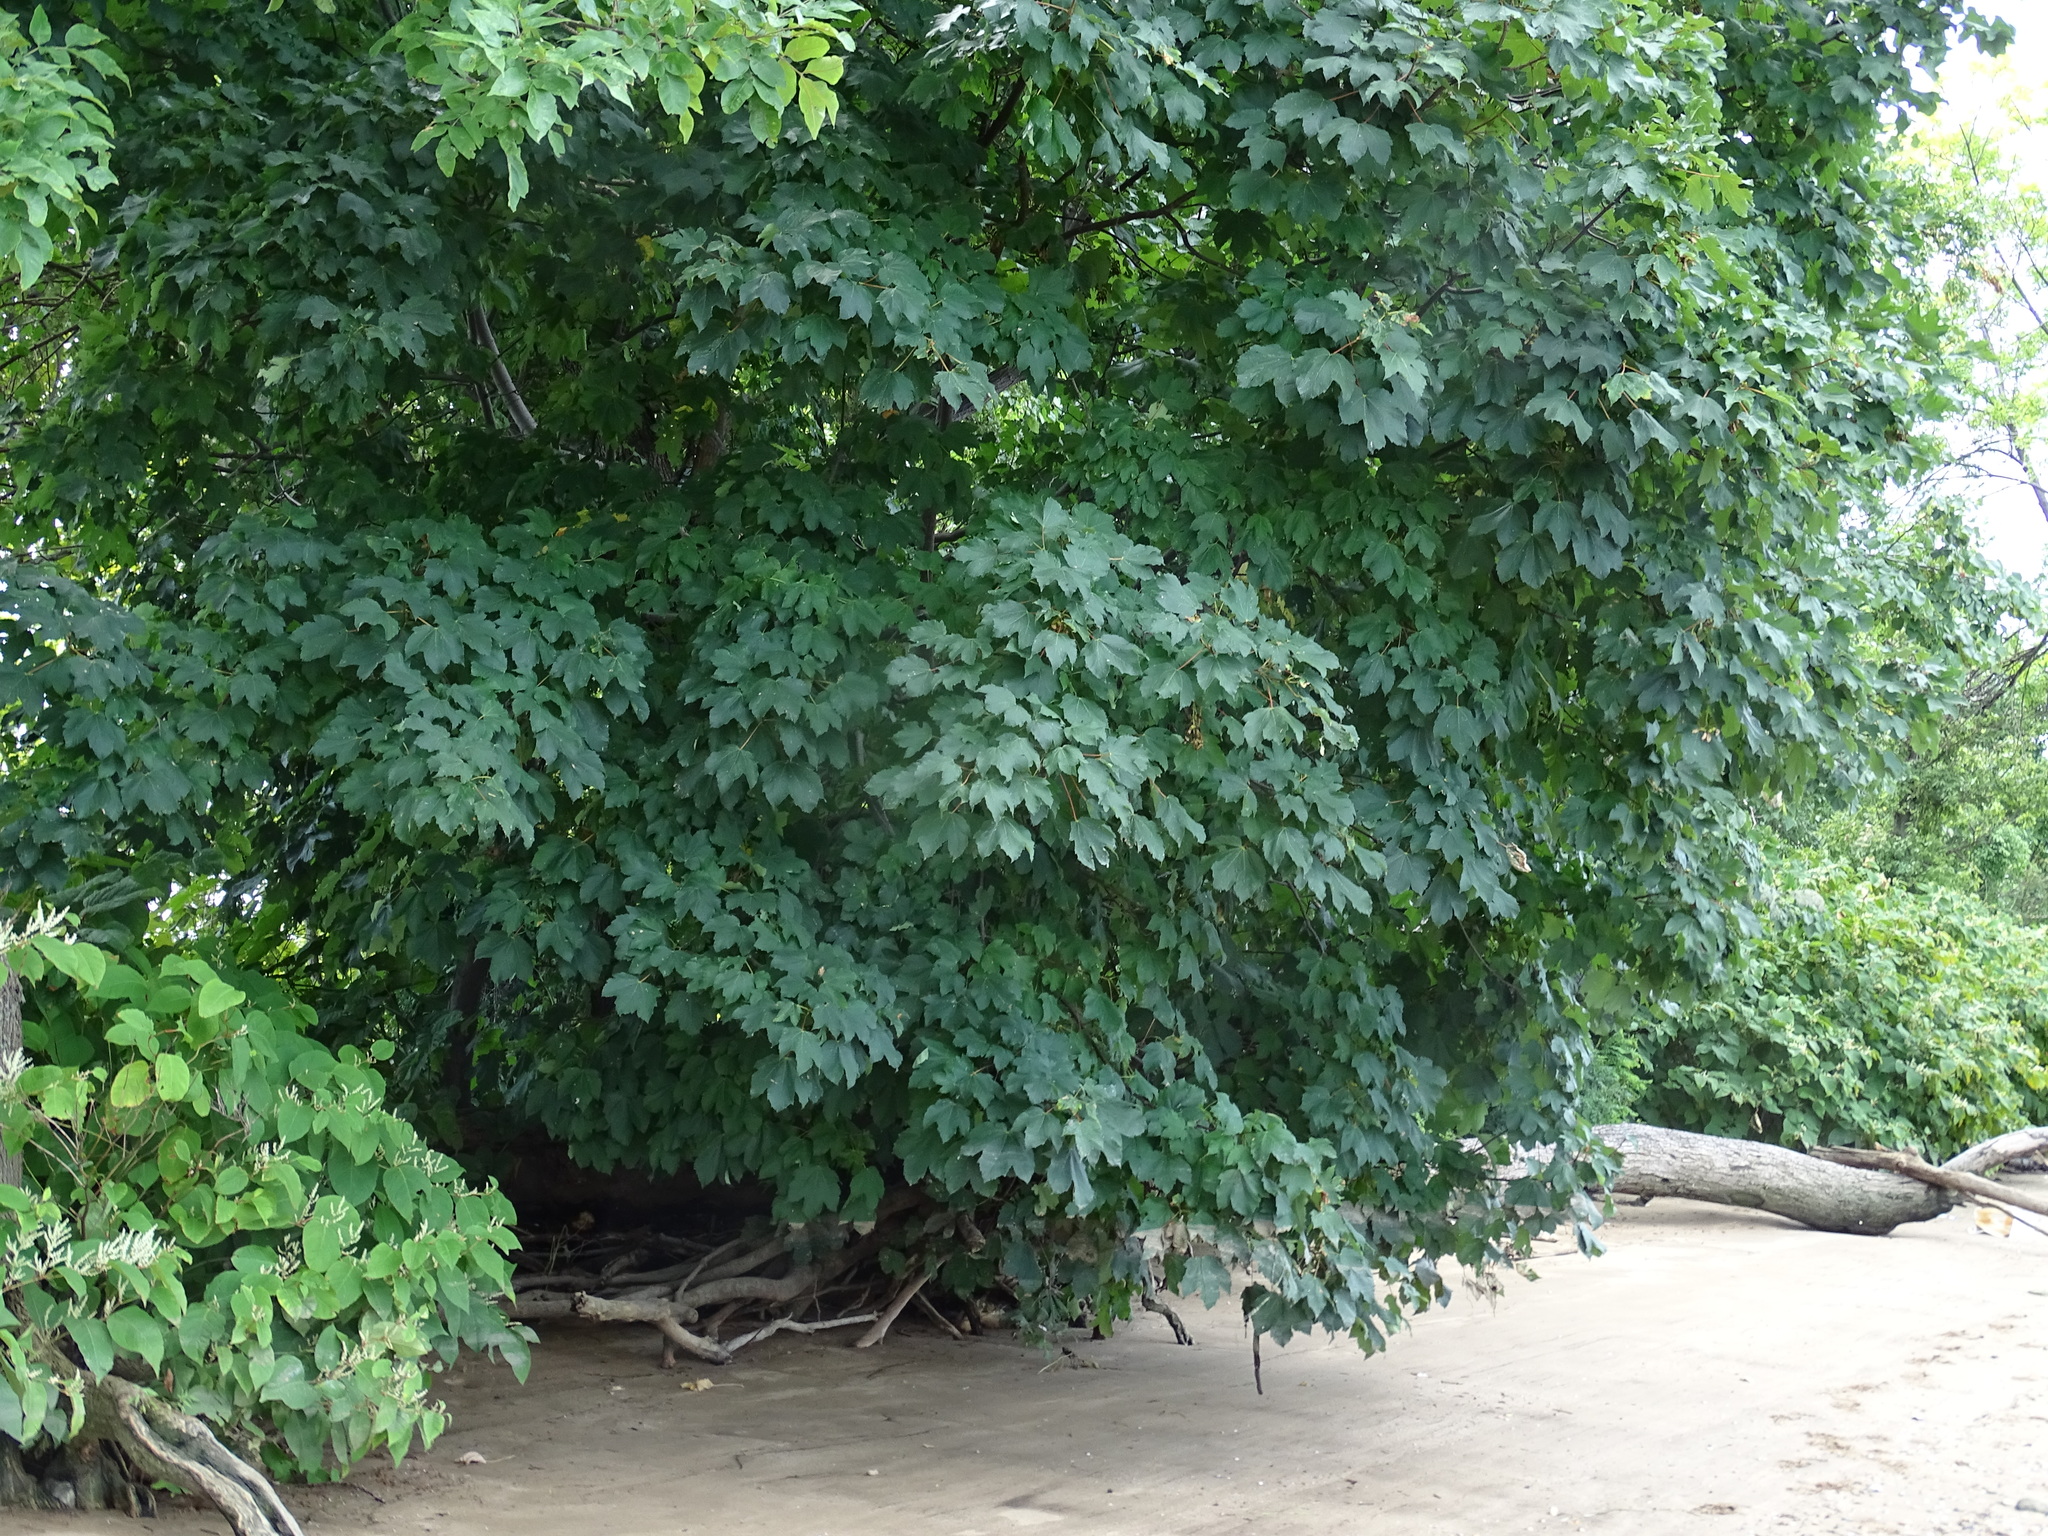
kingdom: Plantae
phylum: Tracheophyta
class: Magnoliopsida
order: Sapindales
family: Sapindaceae
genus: Acer
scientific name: Acer pseudoplatanus
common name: Sycamore
